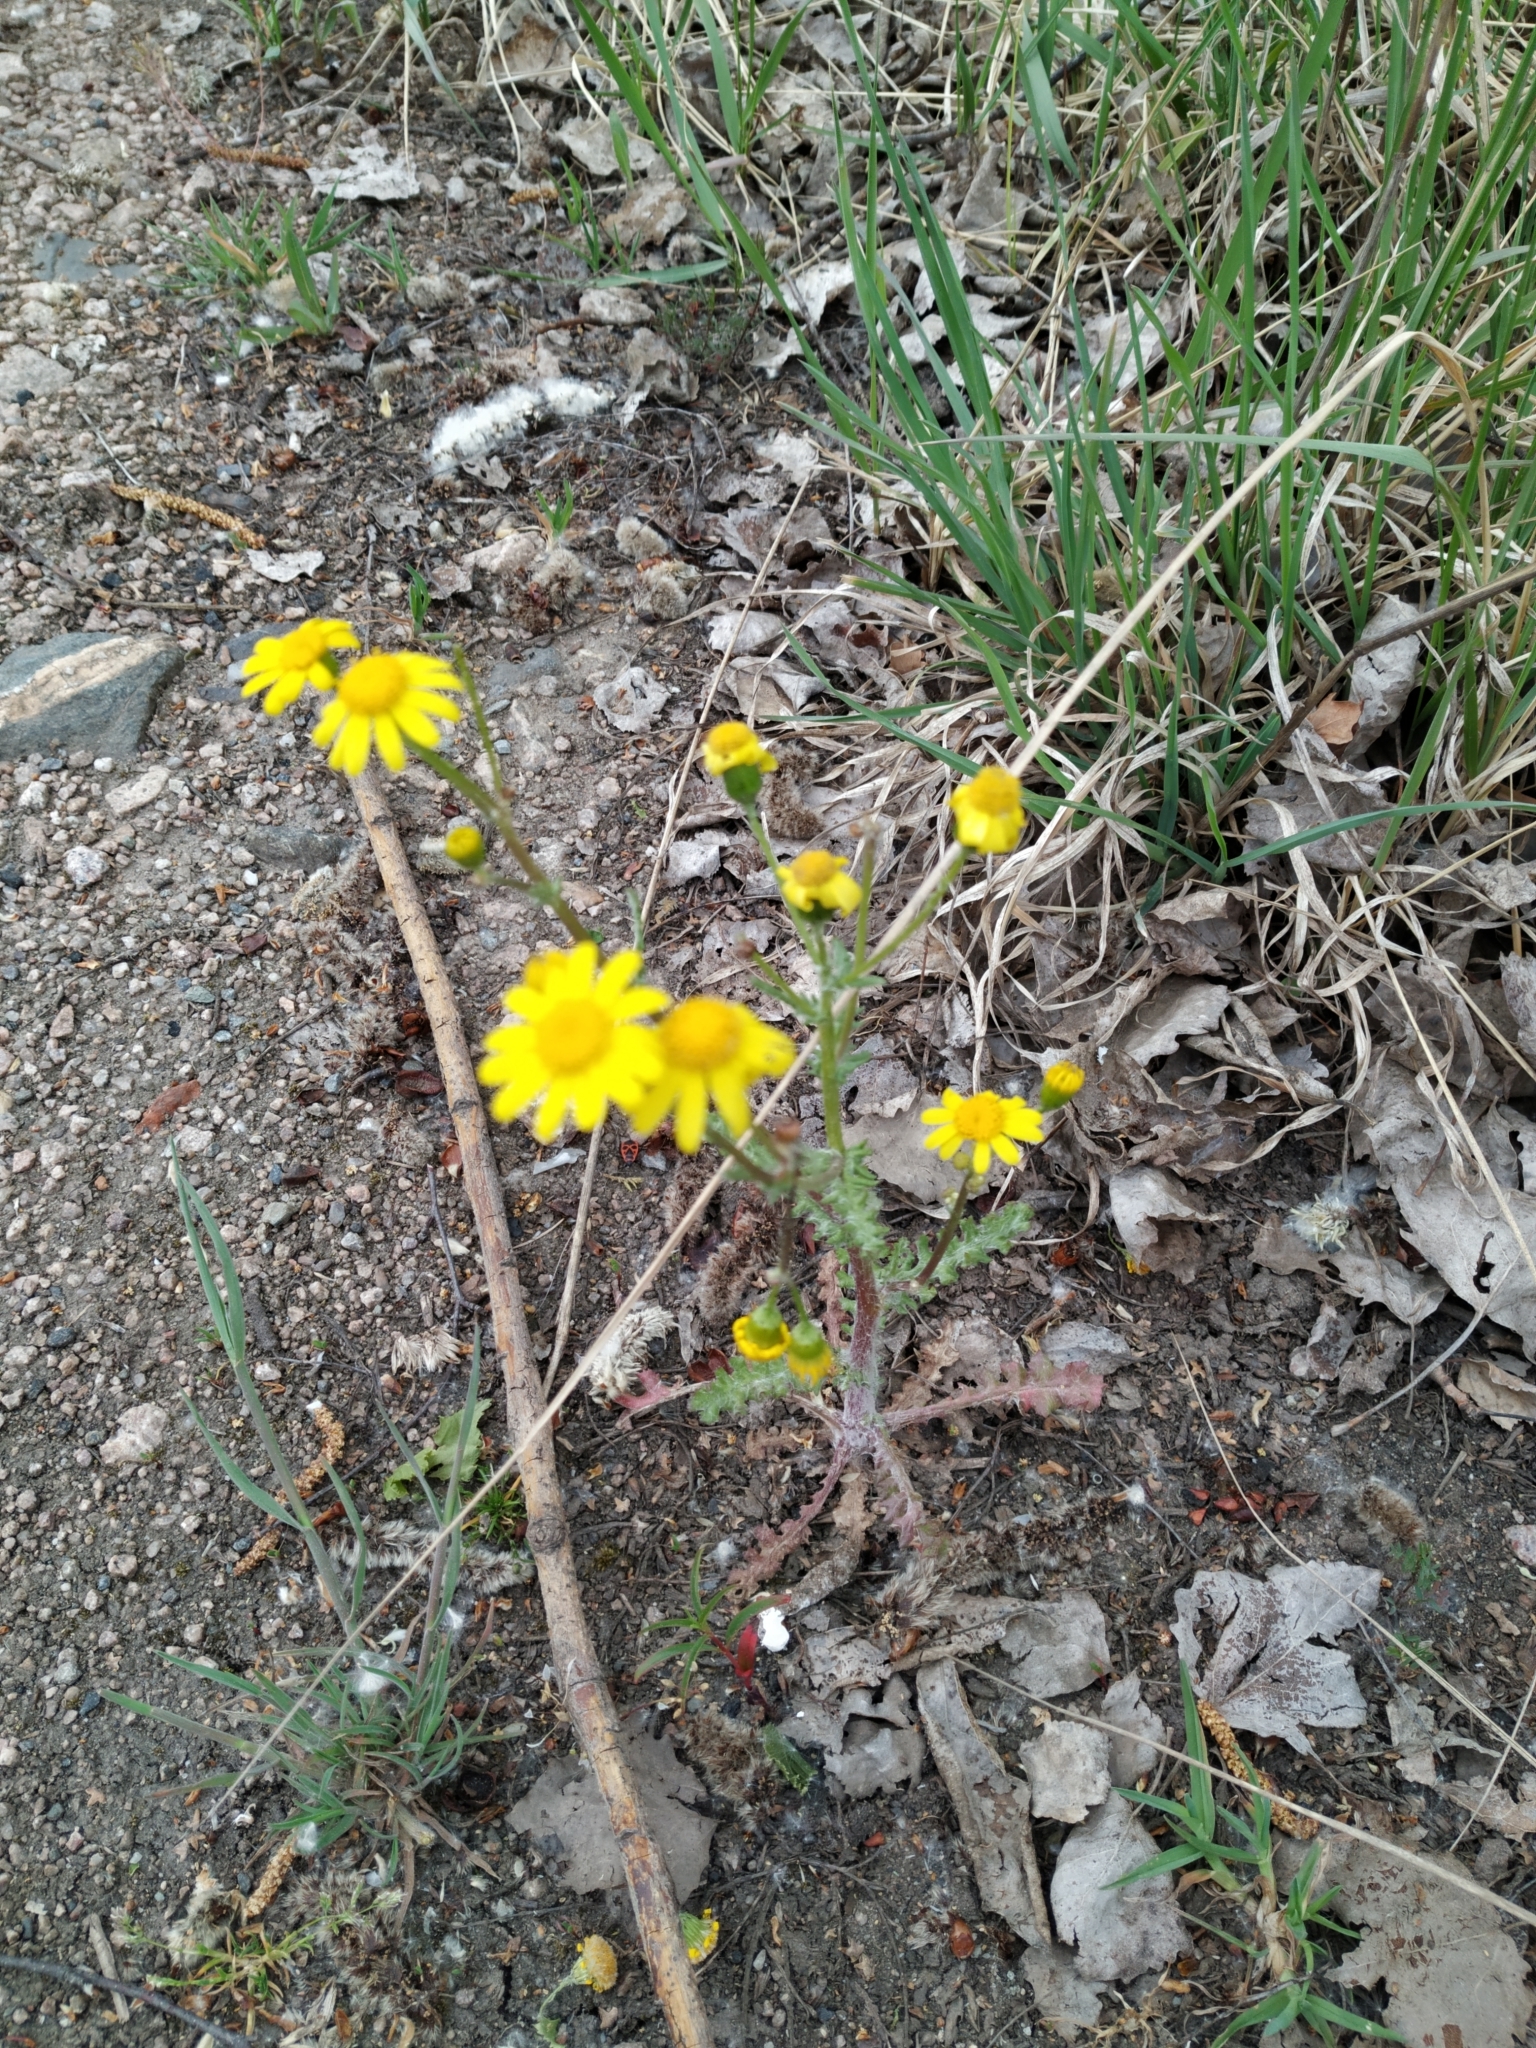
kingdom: Plantae
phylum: Tracheophyta
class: Magnoliopsida
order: Asterales
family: Asteraceae
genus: Senecio
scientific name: Senecio vernalis
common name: Eastern groundsel
